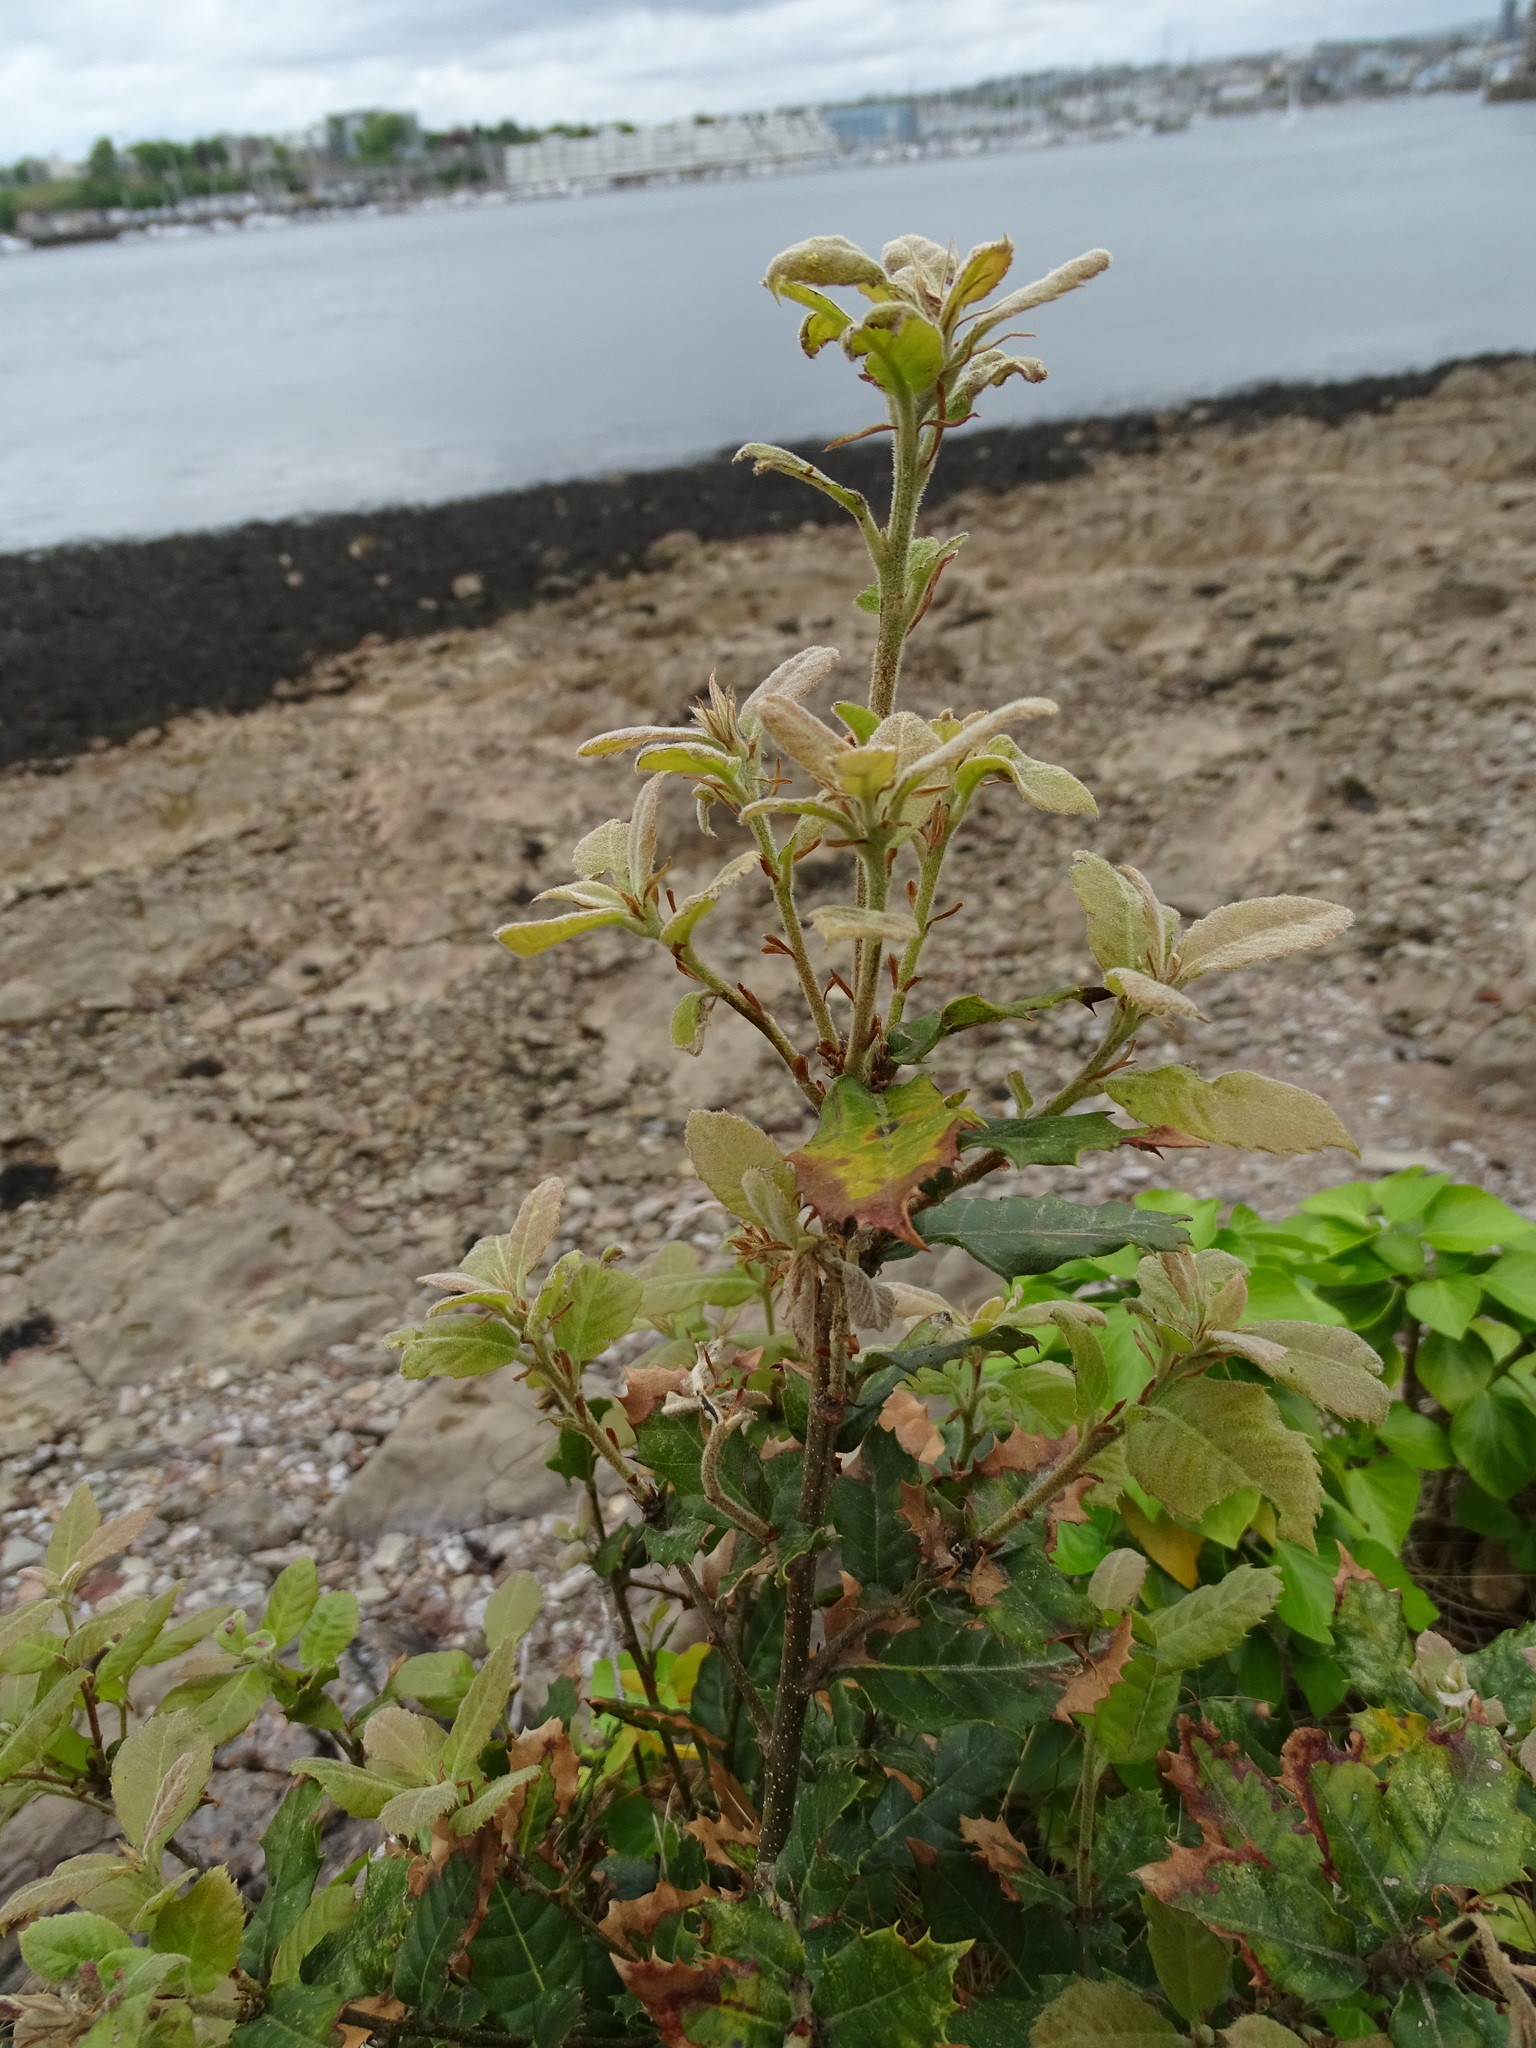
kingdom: Plantae
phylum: Tracheophyta
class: Magnoliopsida
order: Fagales
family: Fagaceae
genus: Quercus
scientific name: Quercus ilex
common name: Evergreen oak
